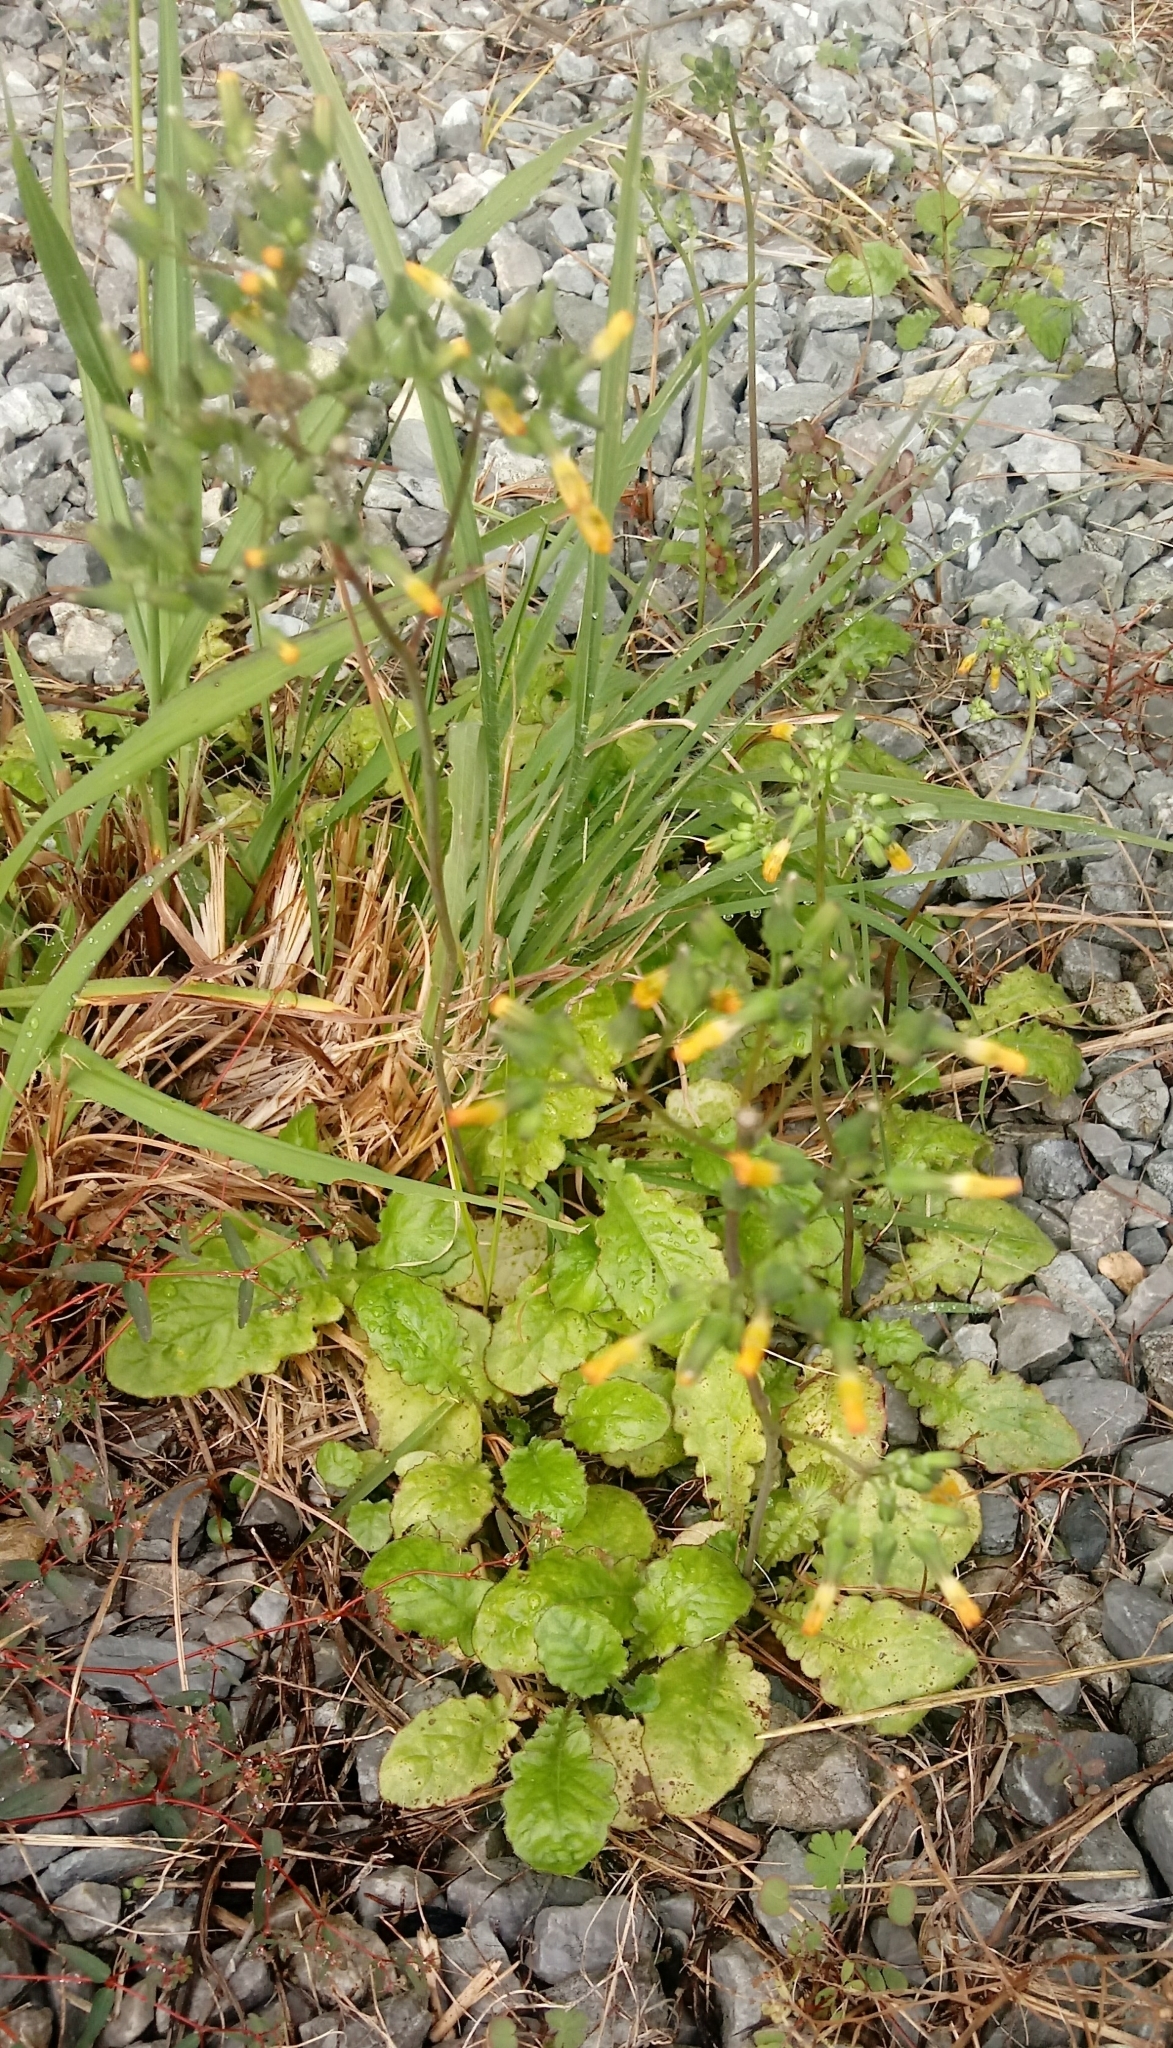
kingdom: Plantae
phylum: Tracheophyta
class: Magnoliopsida
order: Asterales
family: Asteraceae
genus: Youngia
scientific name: Youngia japonica
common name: Oriental false hawksbeard
